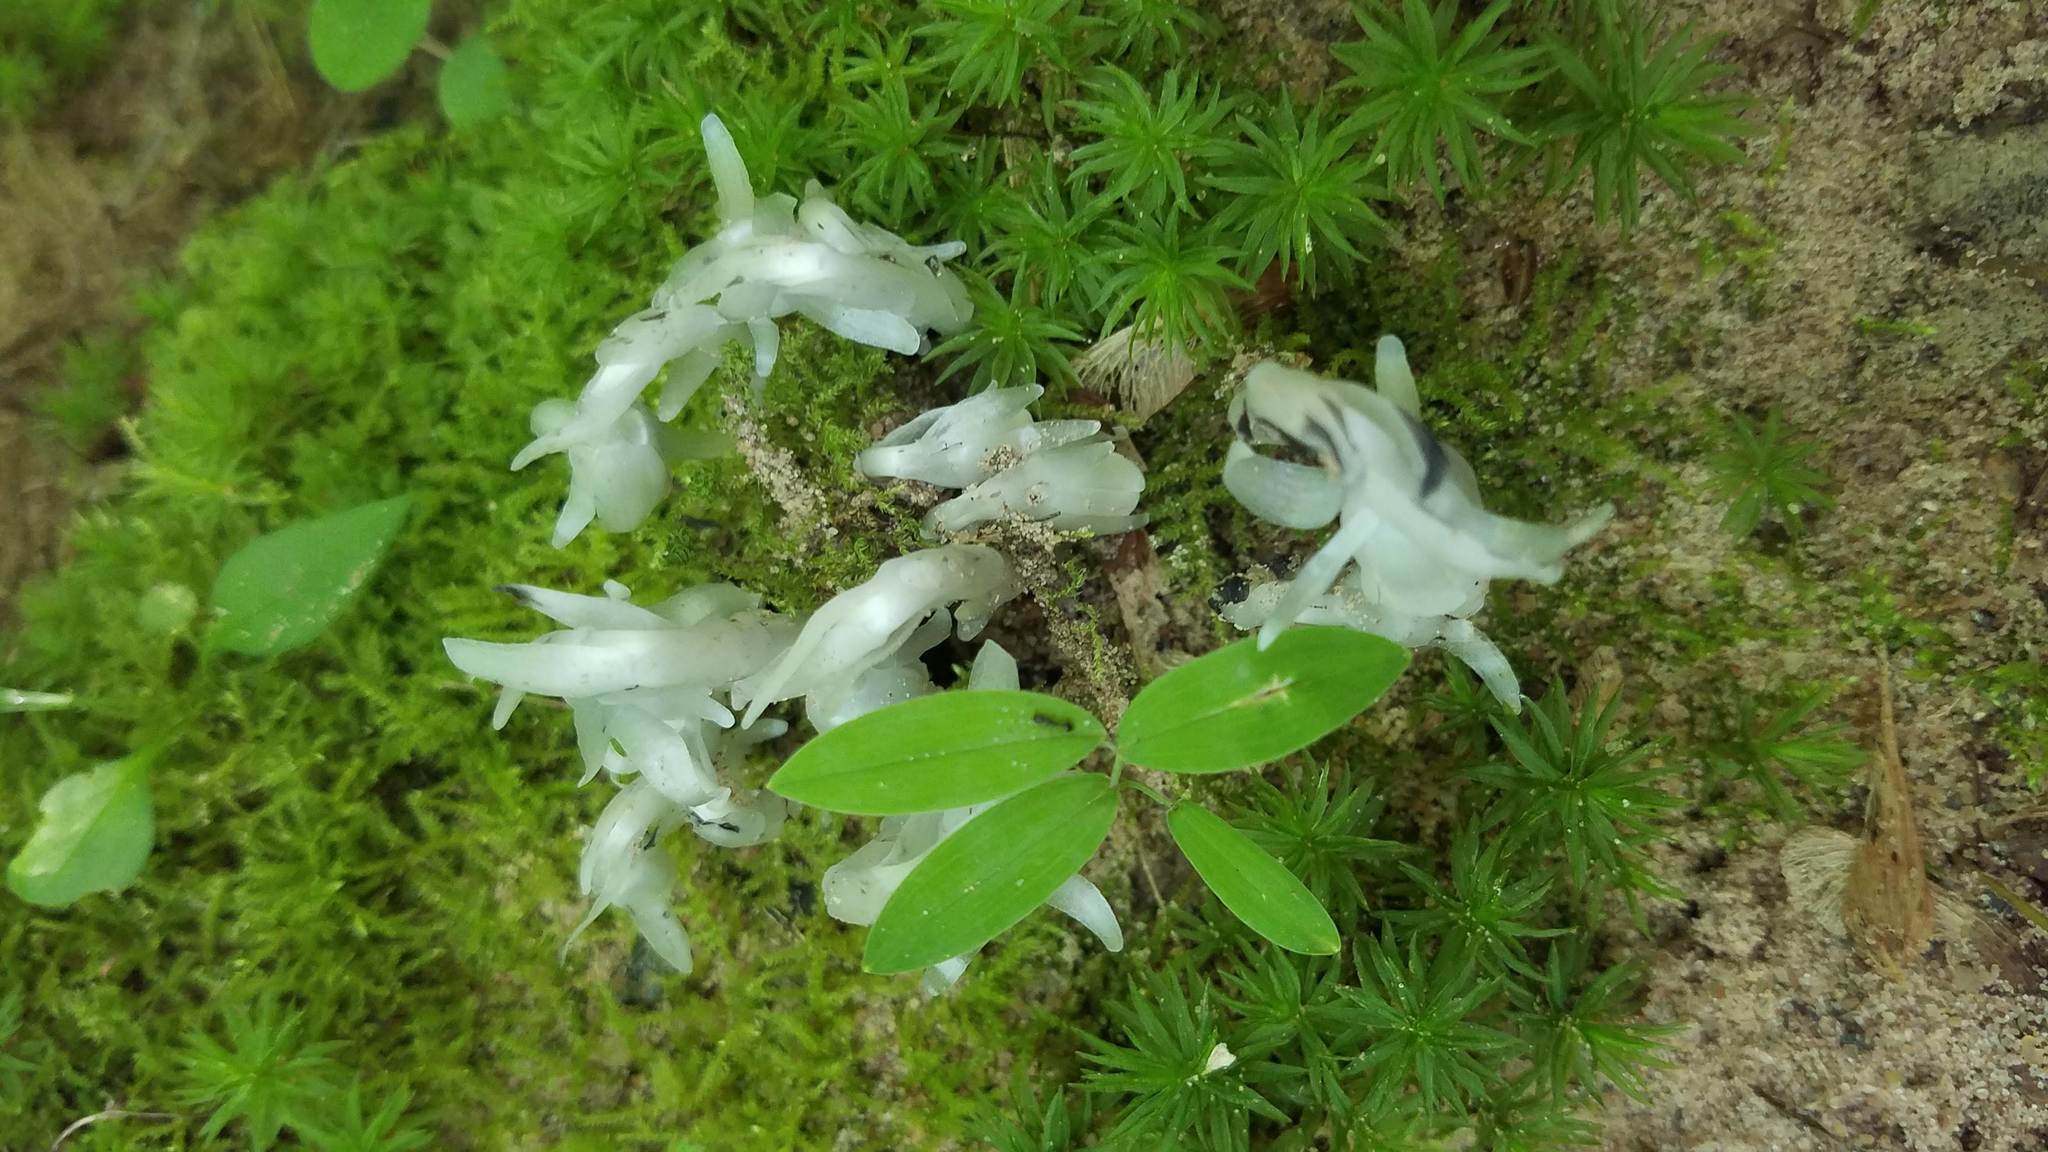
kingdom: Plantae
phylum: Tracheophyta
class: Magnoliopsida
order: Ericales
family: Ericaceae
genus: Monotropa
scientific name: Monotropa uniflora
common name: Convulsion root
